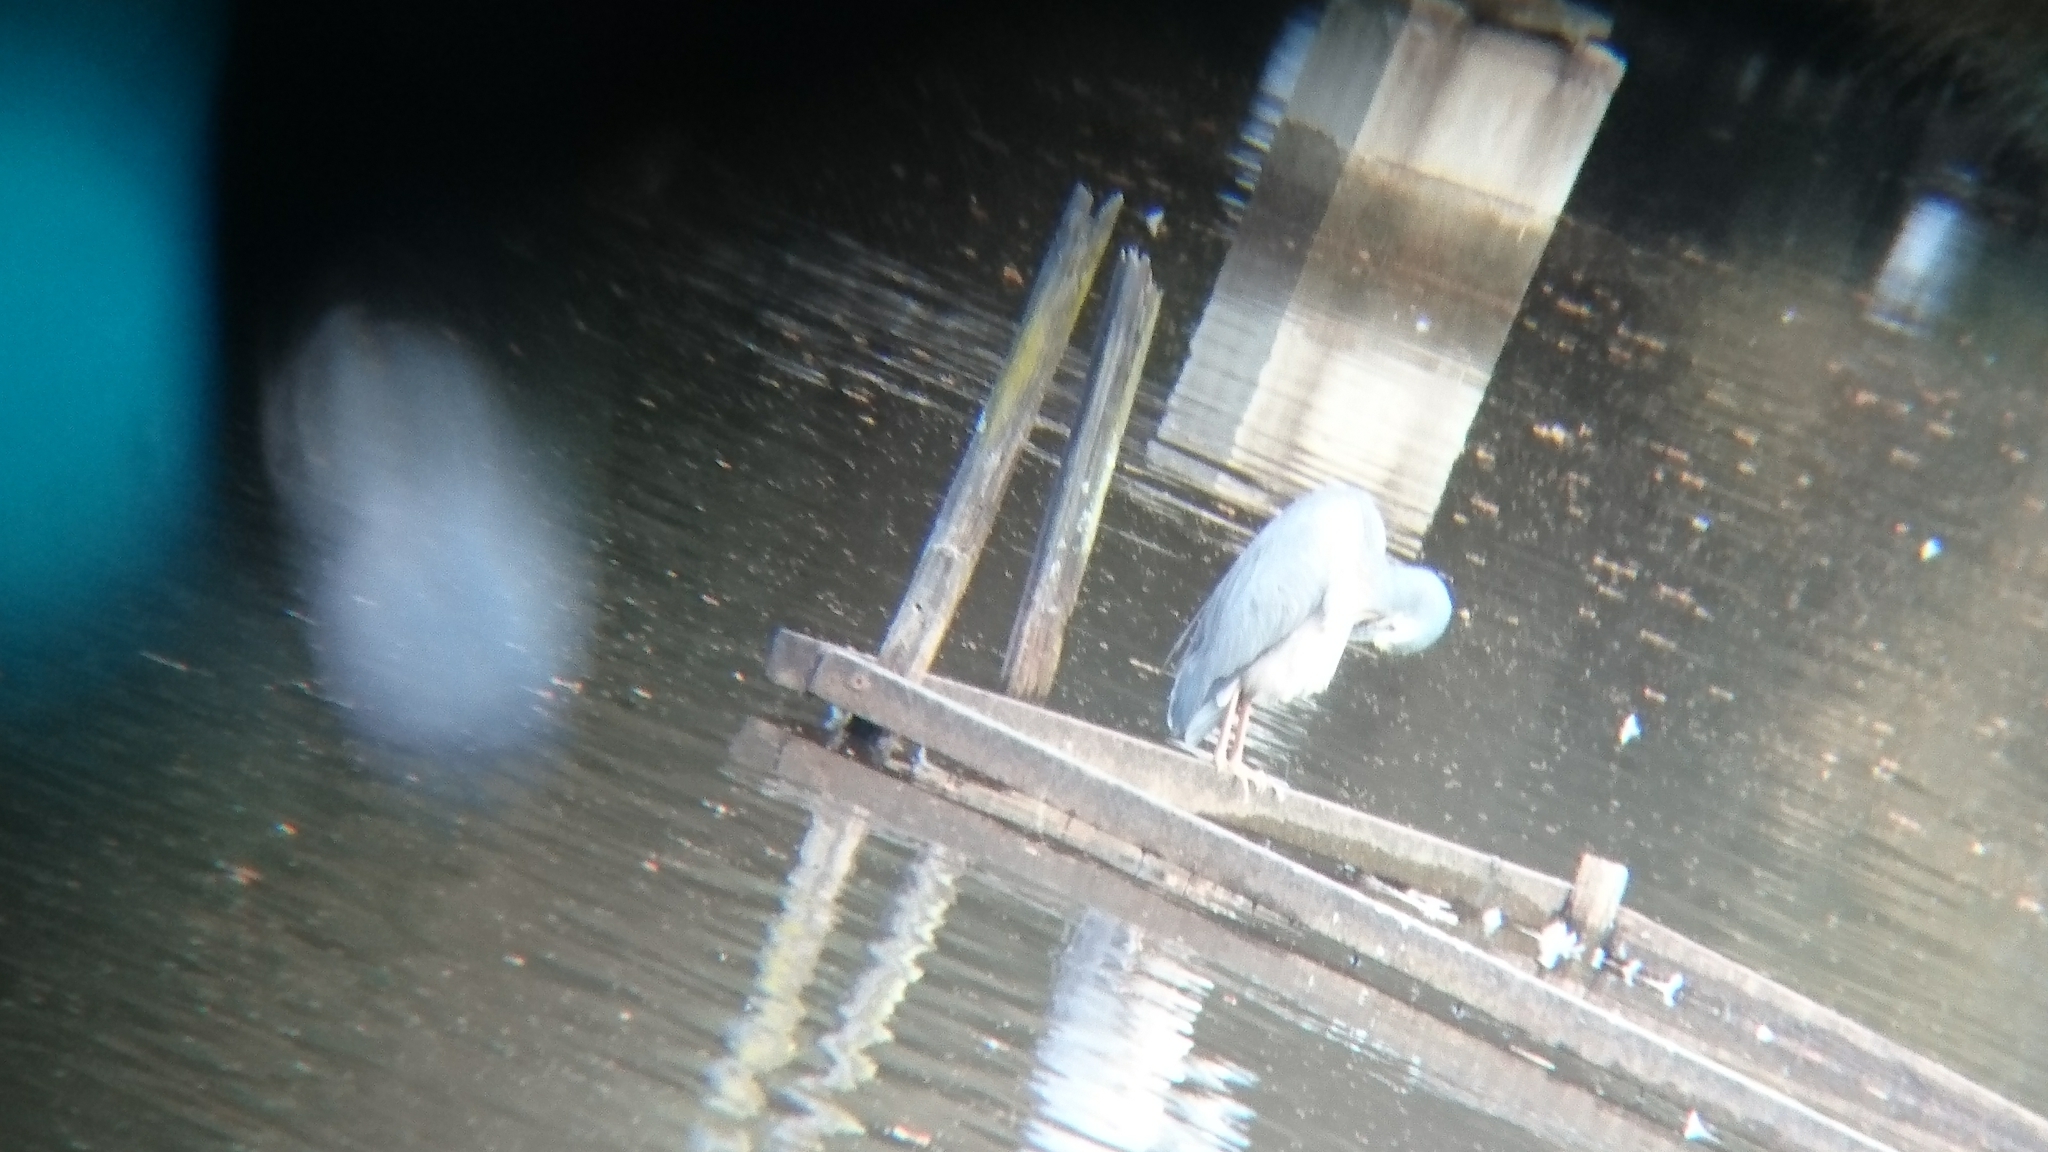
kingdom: Animalia
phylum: Chordata
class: Aves
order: Pelecaniformes
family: Ardeidae
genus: Egretta
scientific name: Egretta novaehollandiae
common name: White-faced heron
